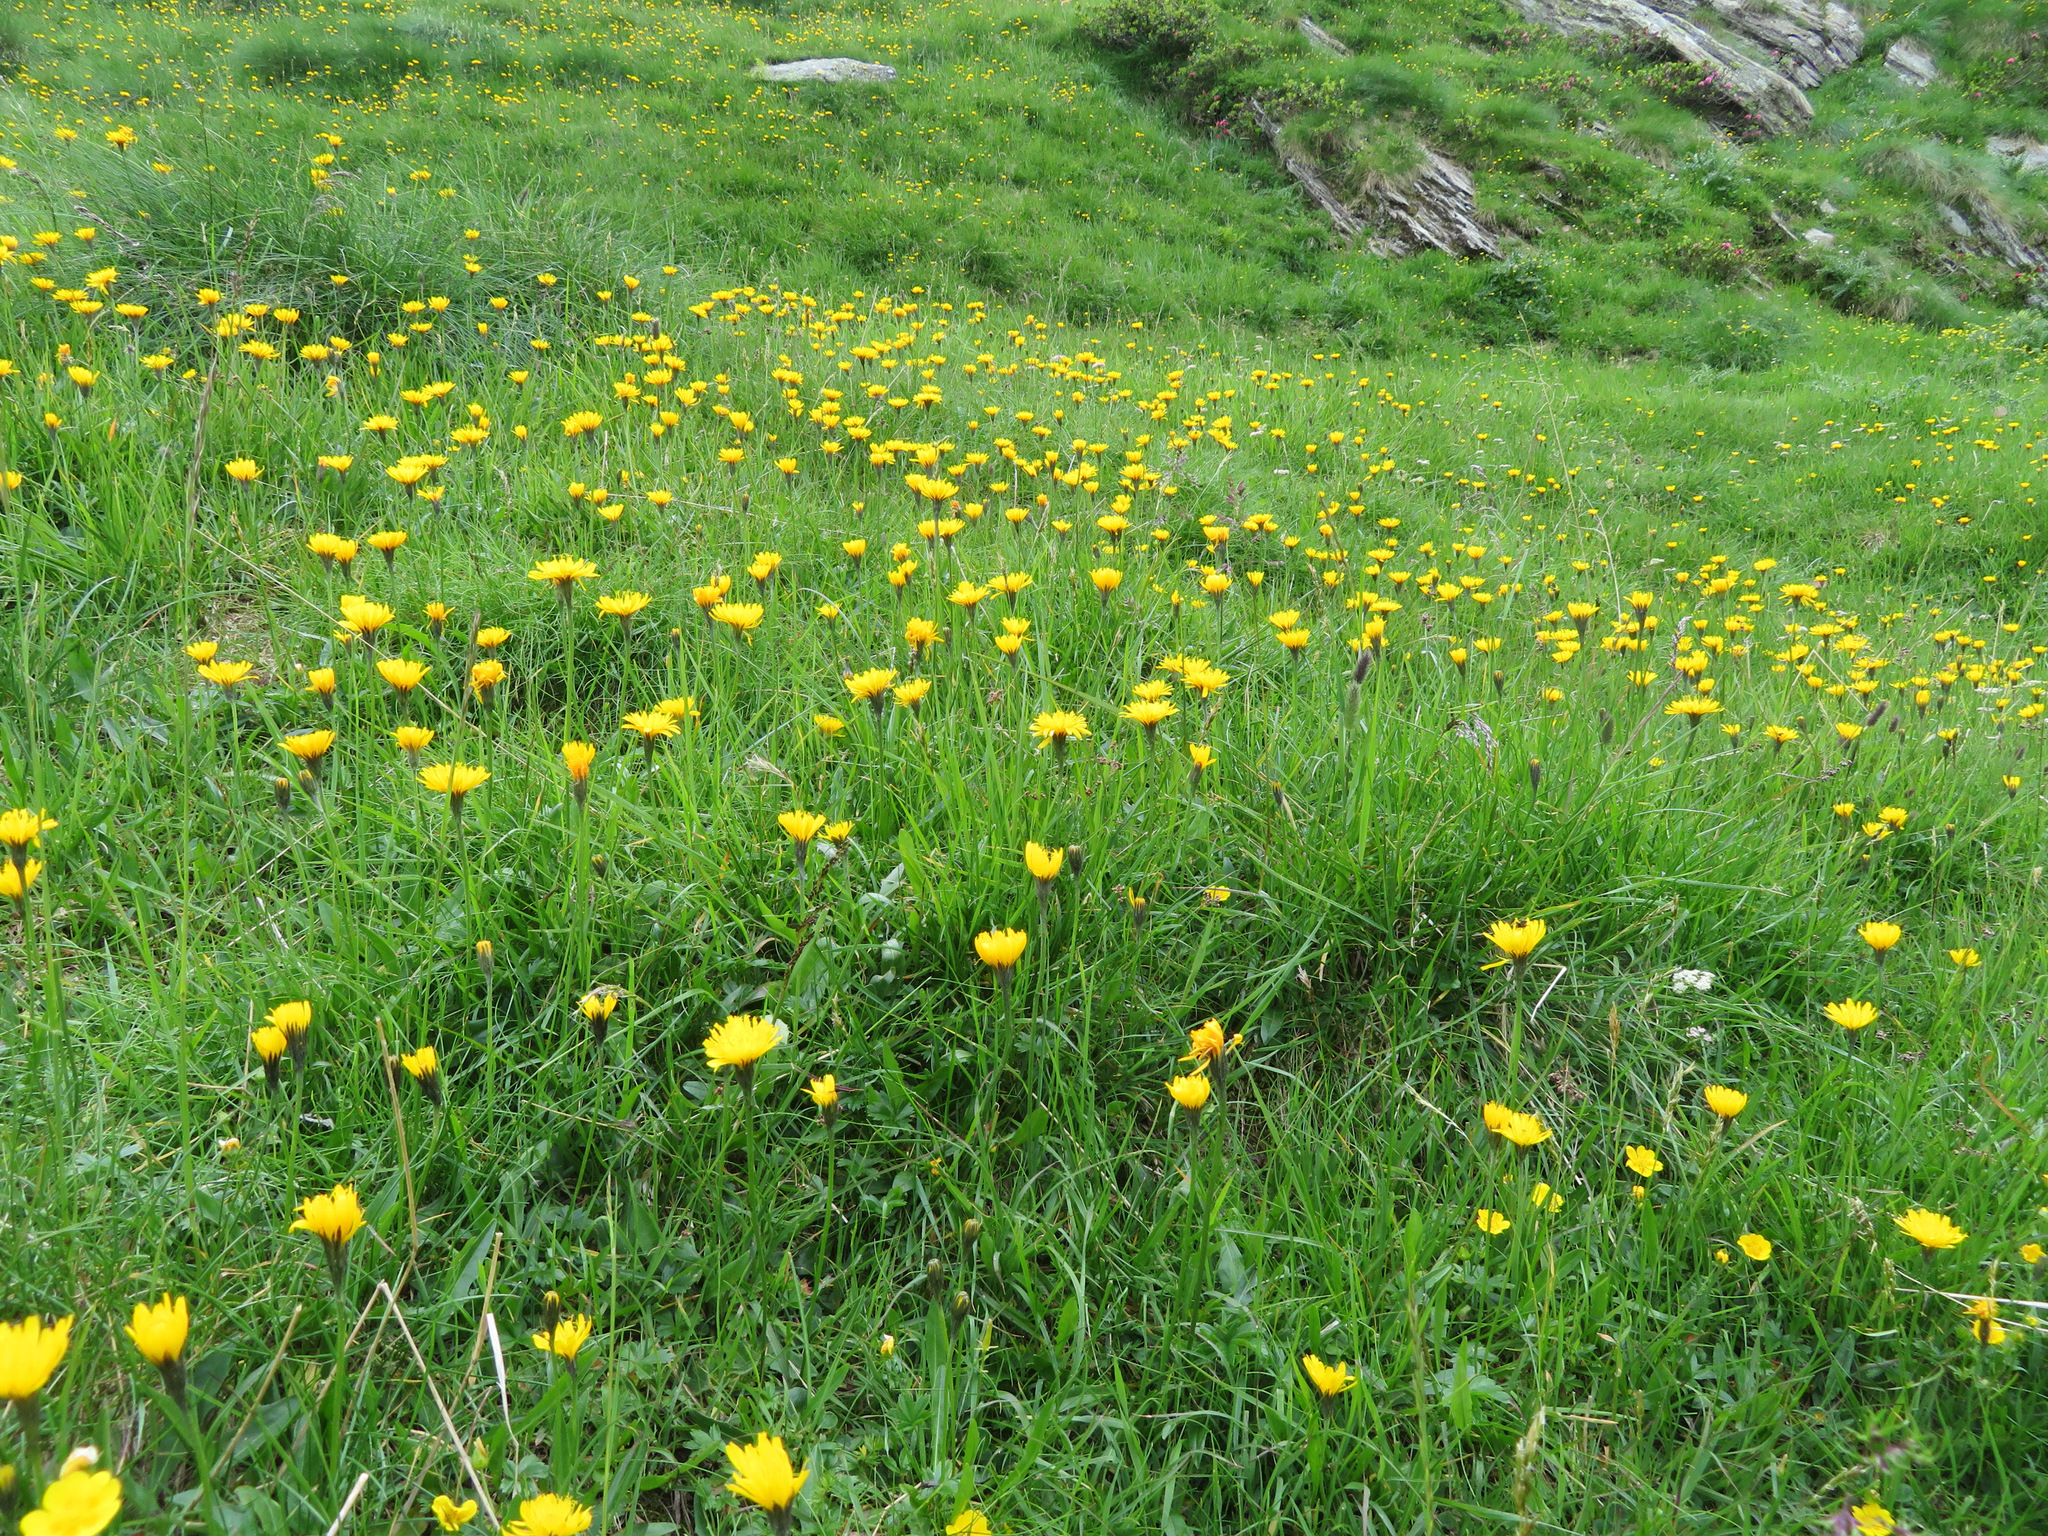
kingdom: Plantae
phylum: Tracheophyta
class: Magnoliopsida
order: Asterales
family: Asteraceae
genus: Scorzoneroides
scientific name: Scorzoneroides helvetica
